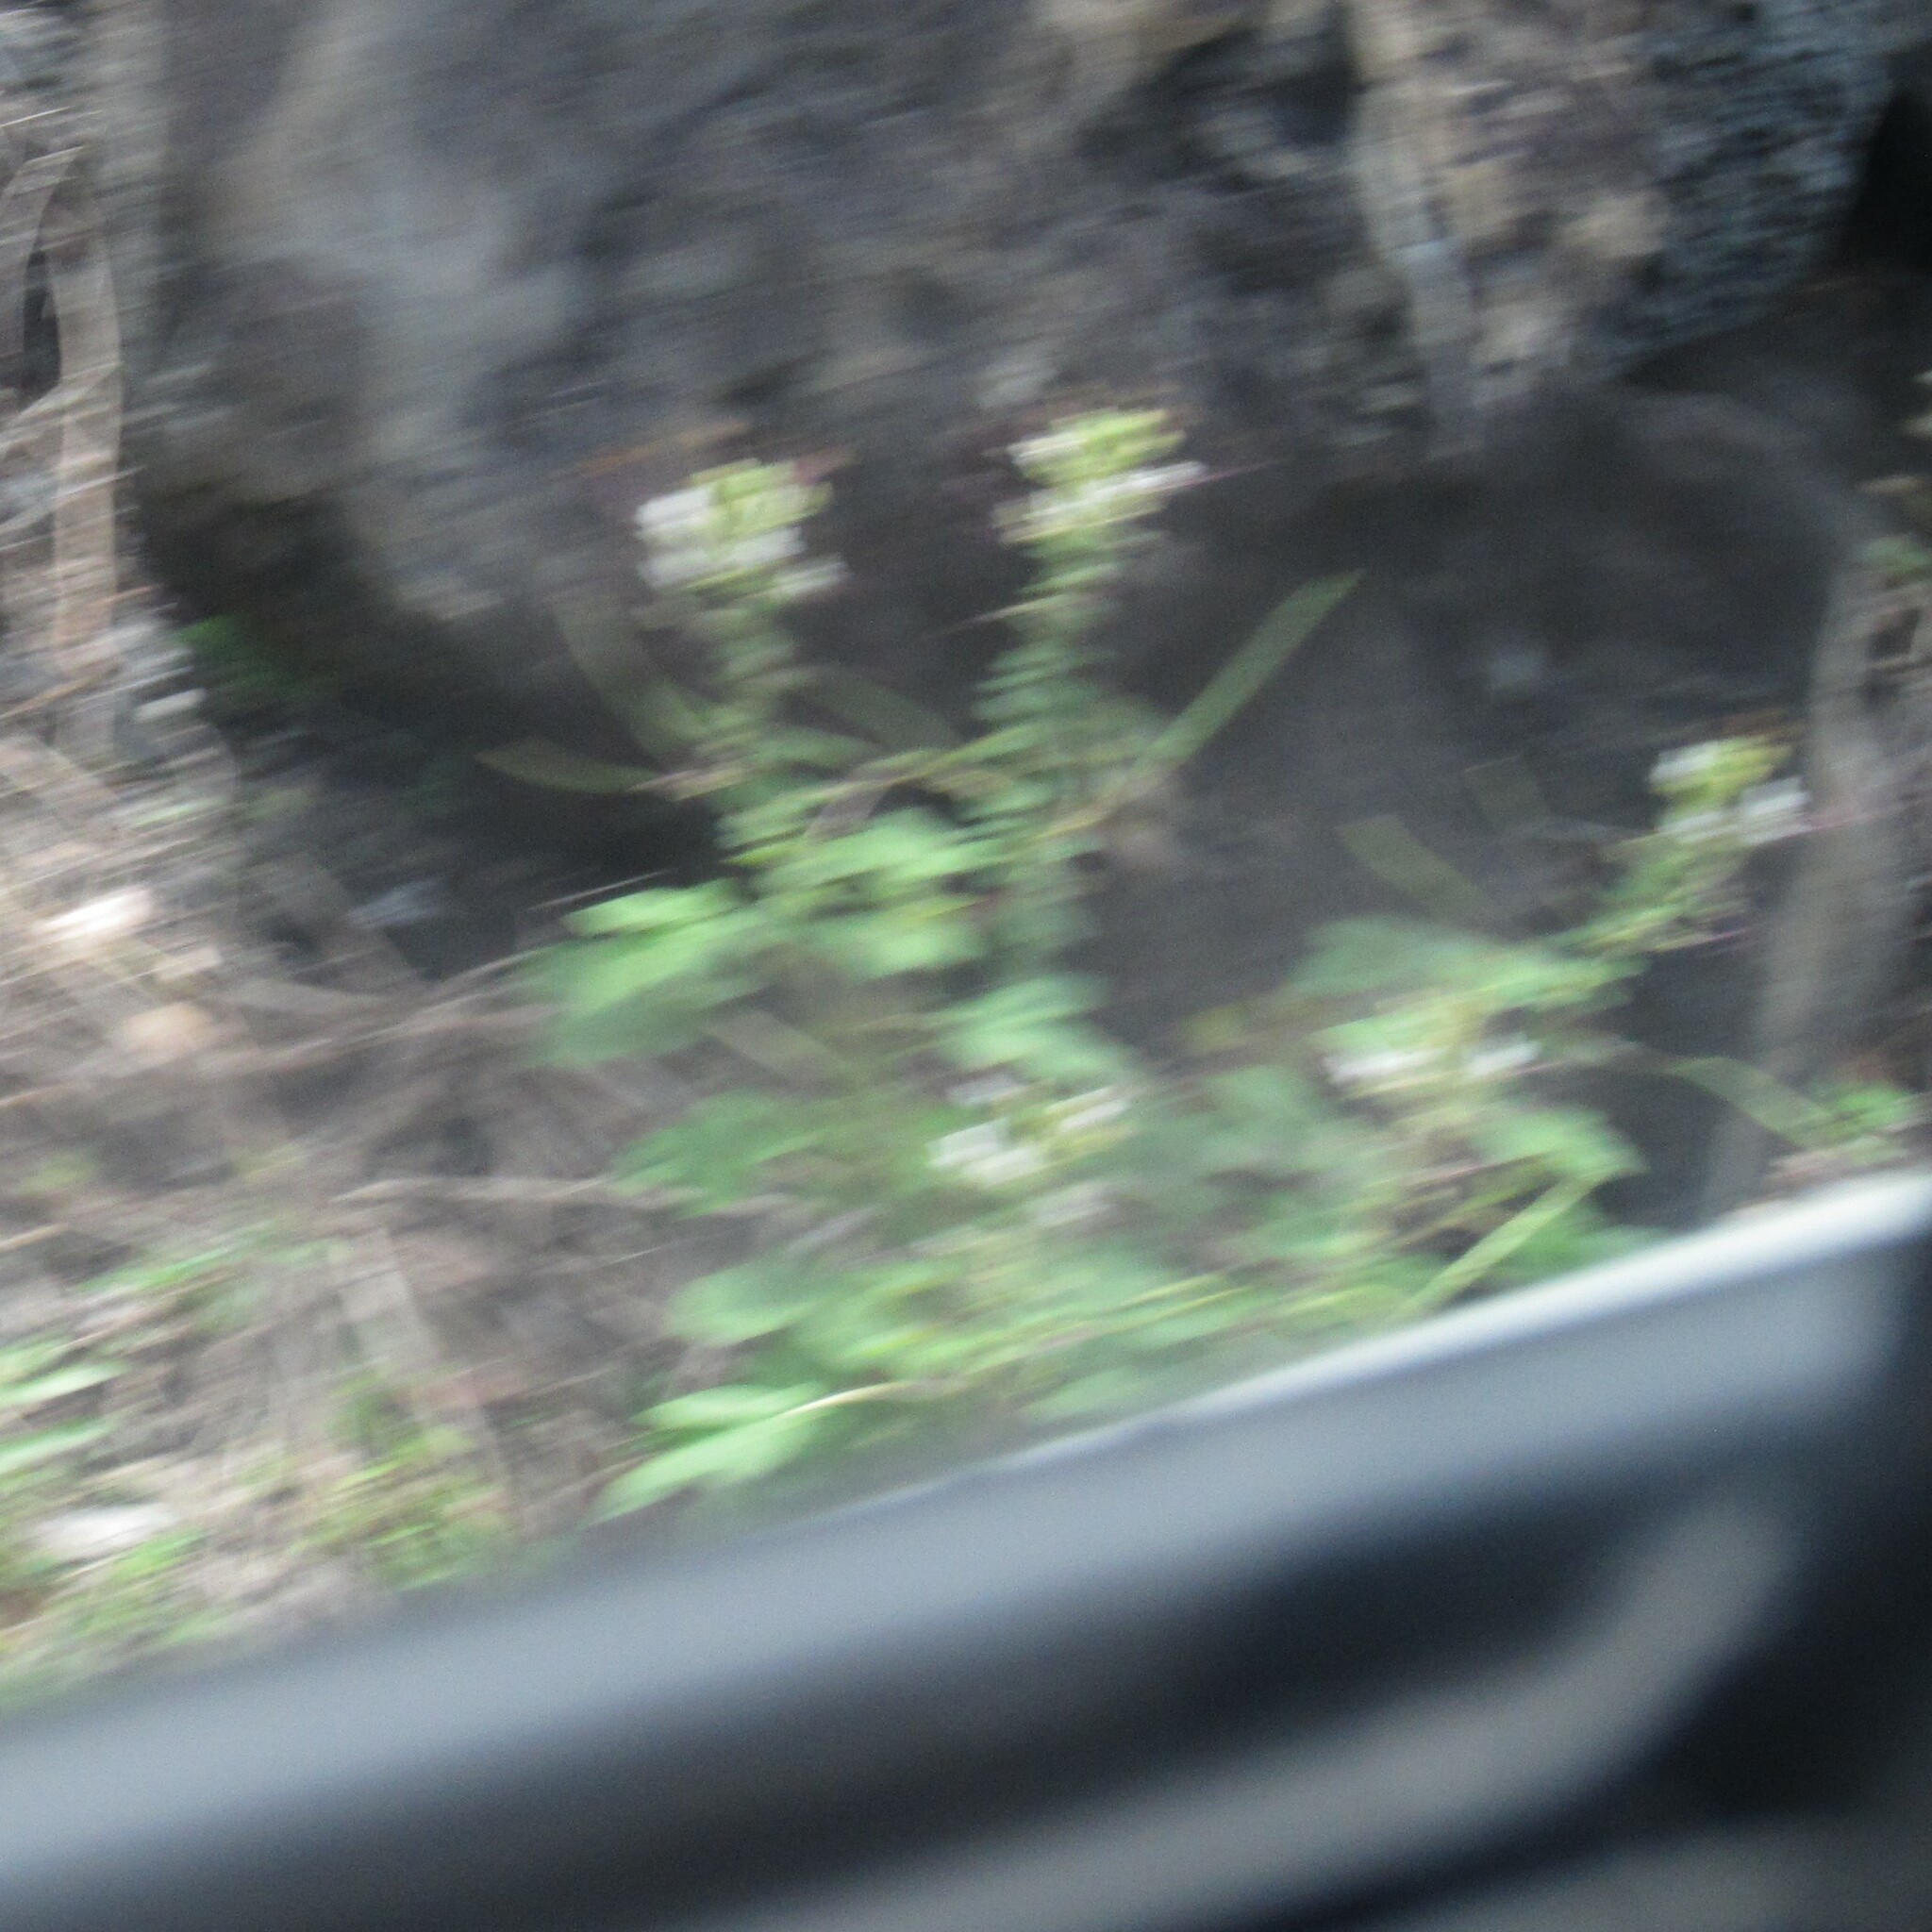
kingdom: Plantae
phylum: Tracheophyta
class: Magnoliopsida
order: Brassicales
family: Cleomaceae
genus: Gynandropsis
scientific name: Gynandropsis gynandra
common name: Spiderwisp
